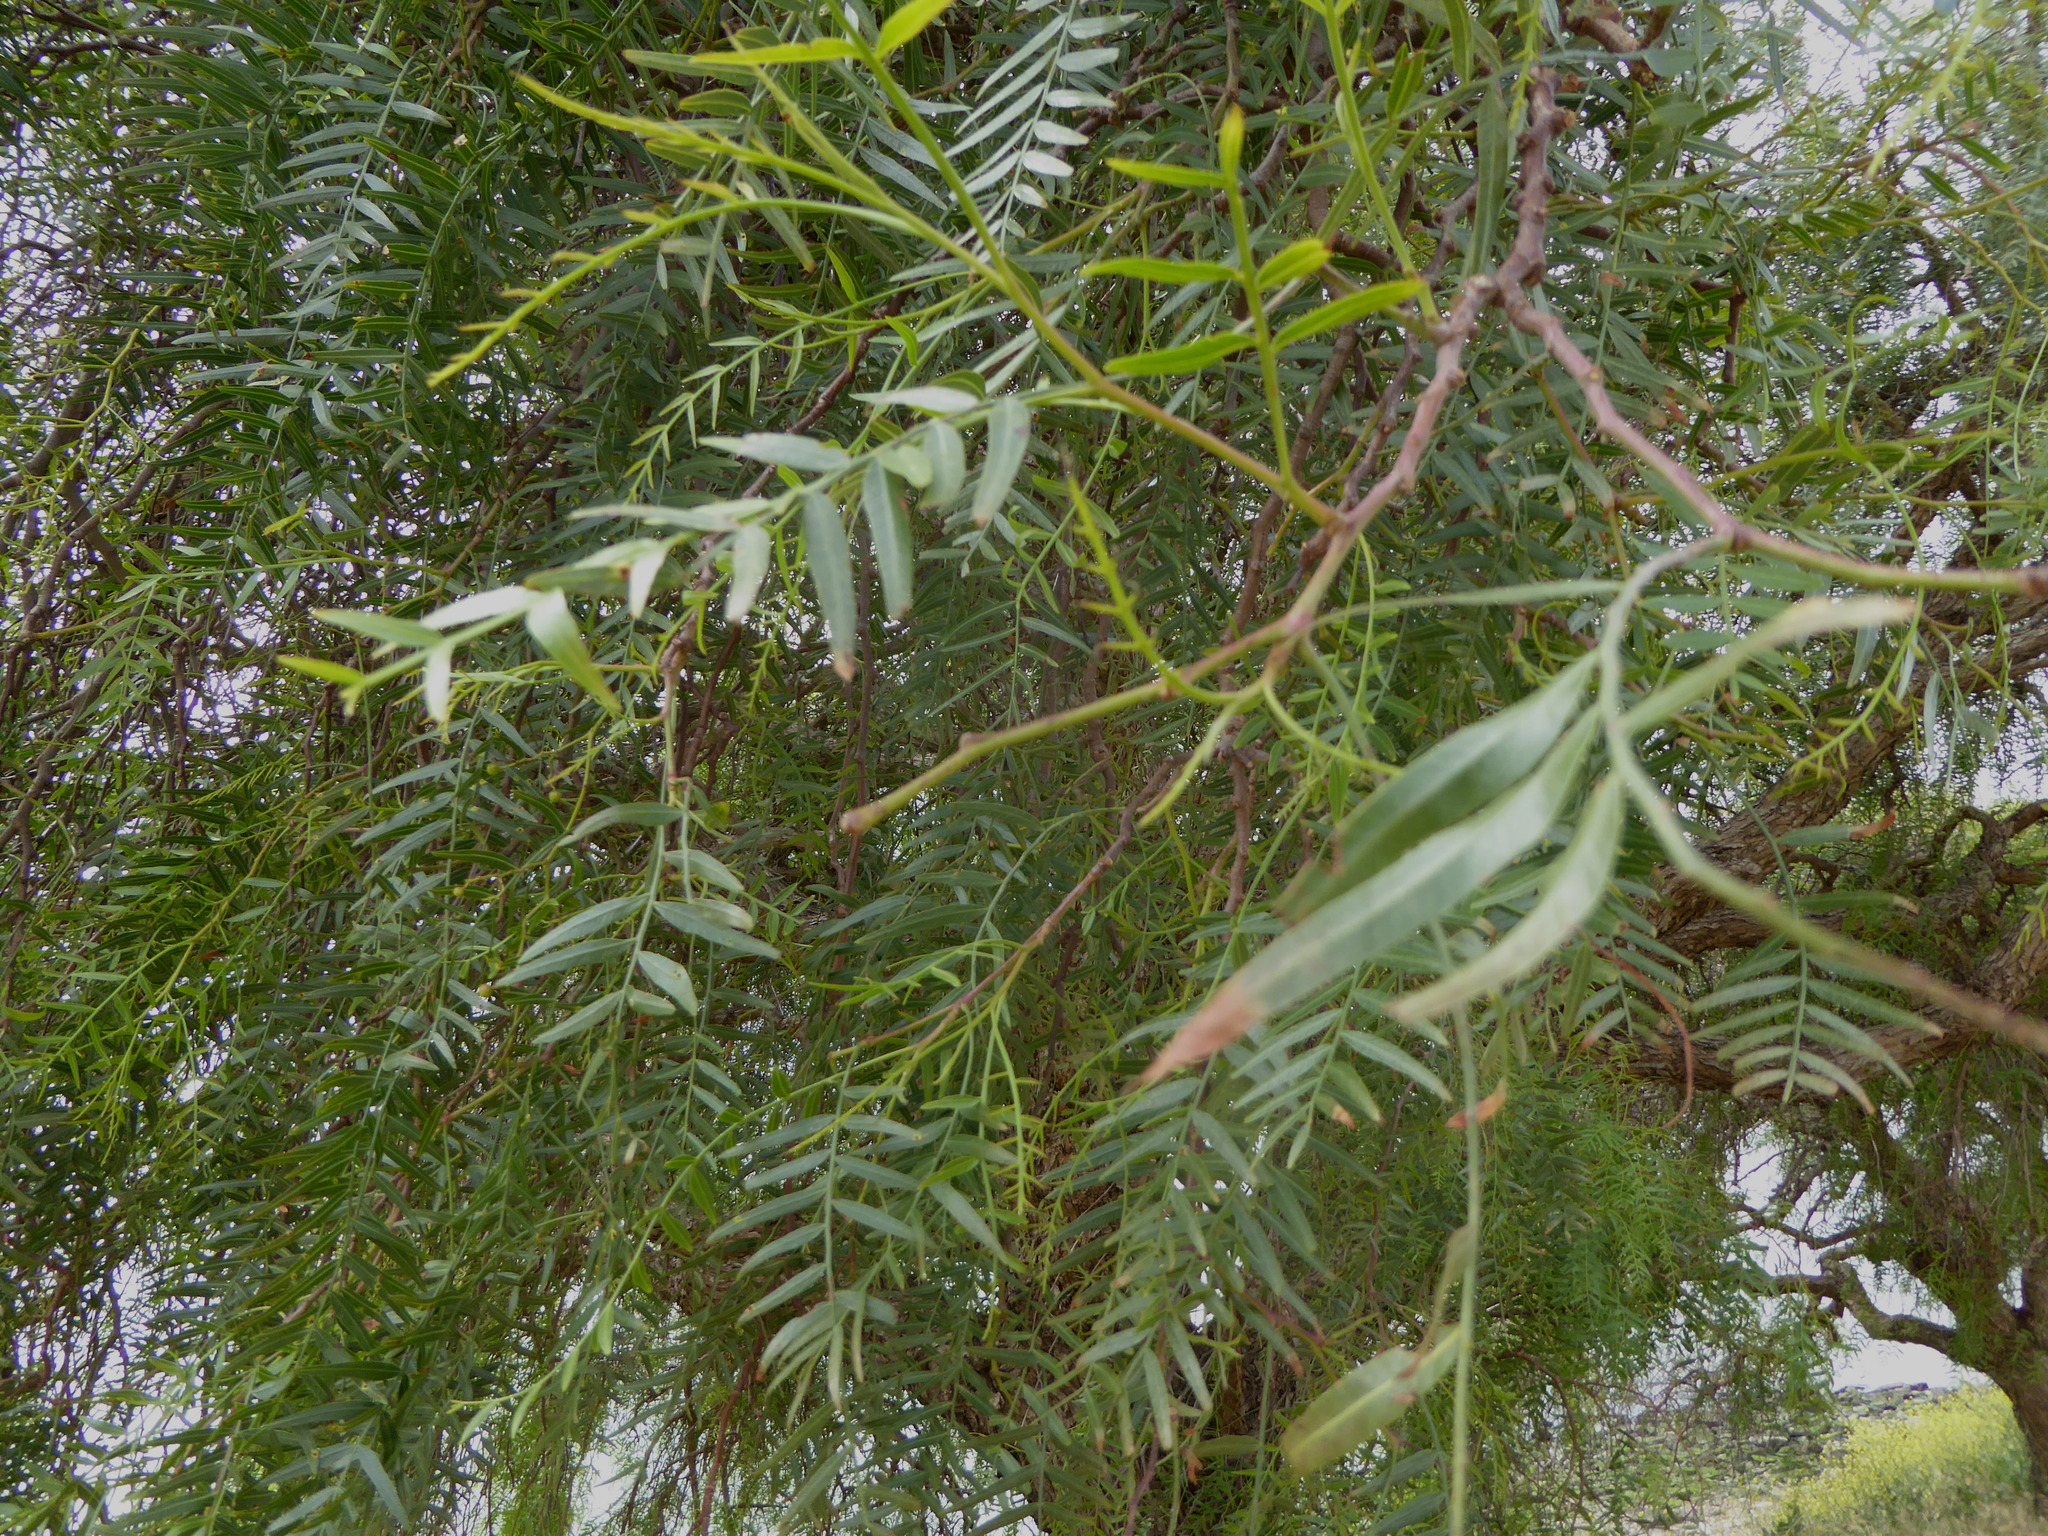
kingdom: Plantae
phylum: Tracheophyta
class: Magnoliopsida
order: Sapindales
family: Anacardiaceae
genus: Schinus
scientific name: Schinus molle
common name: Peruvian peppertree
